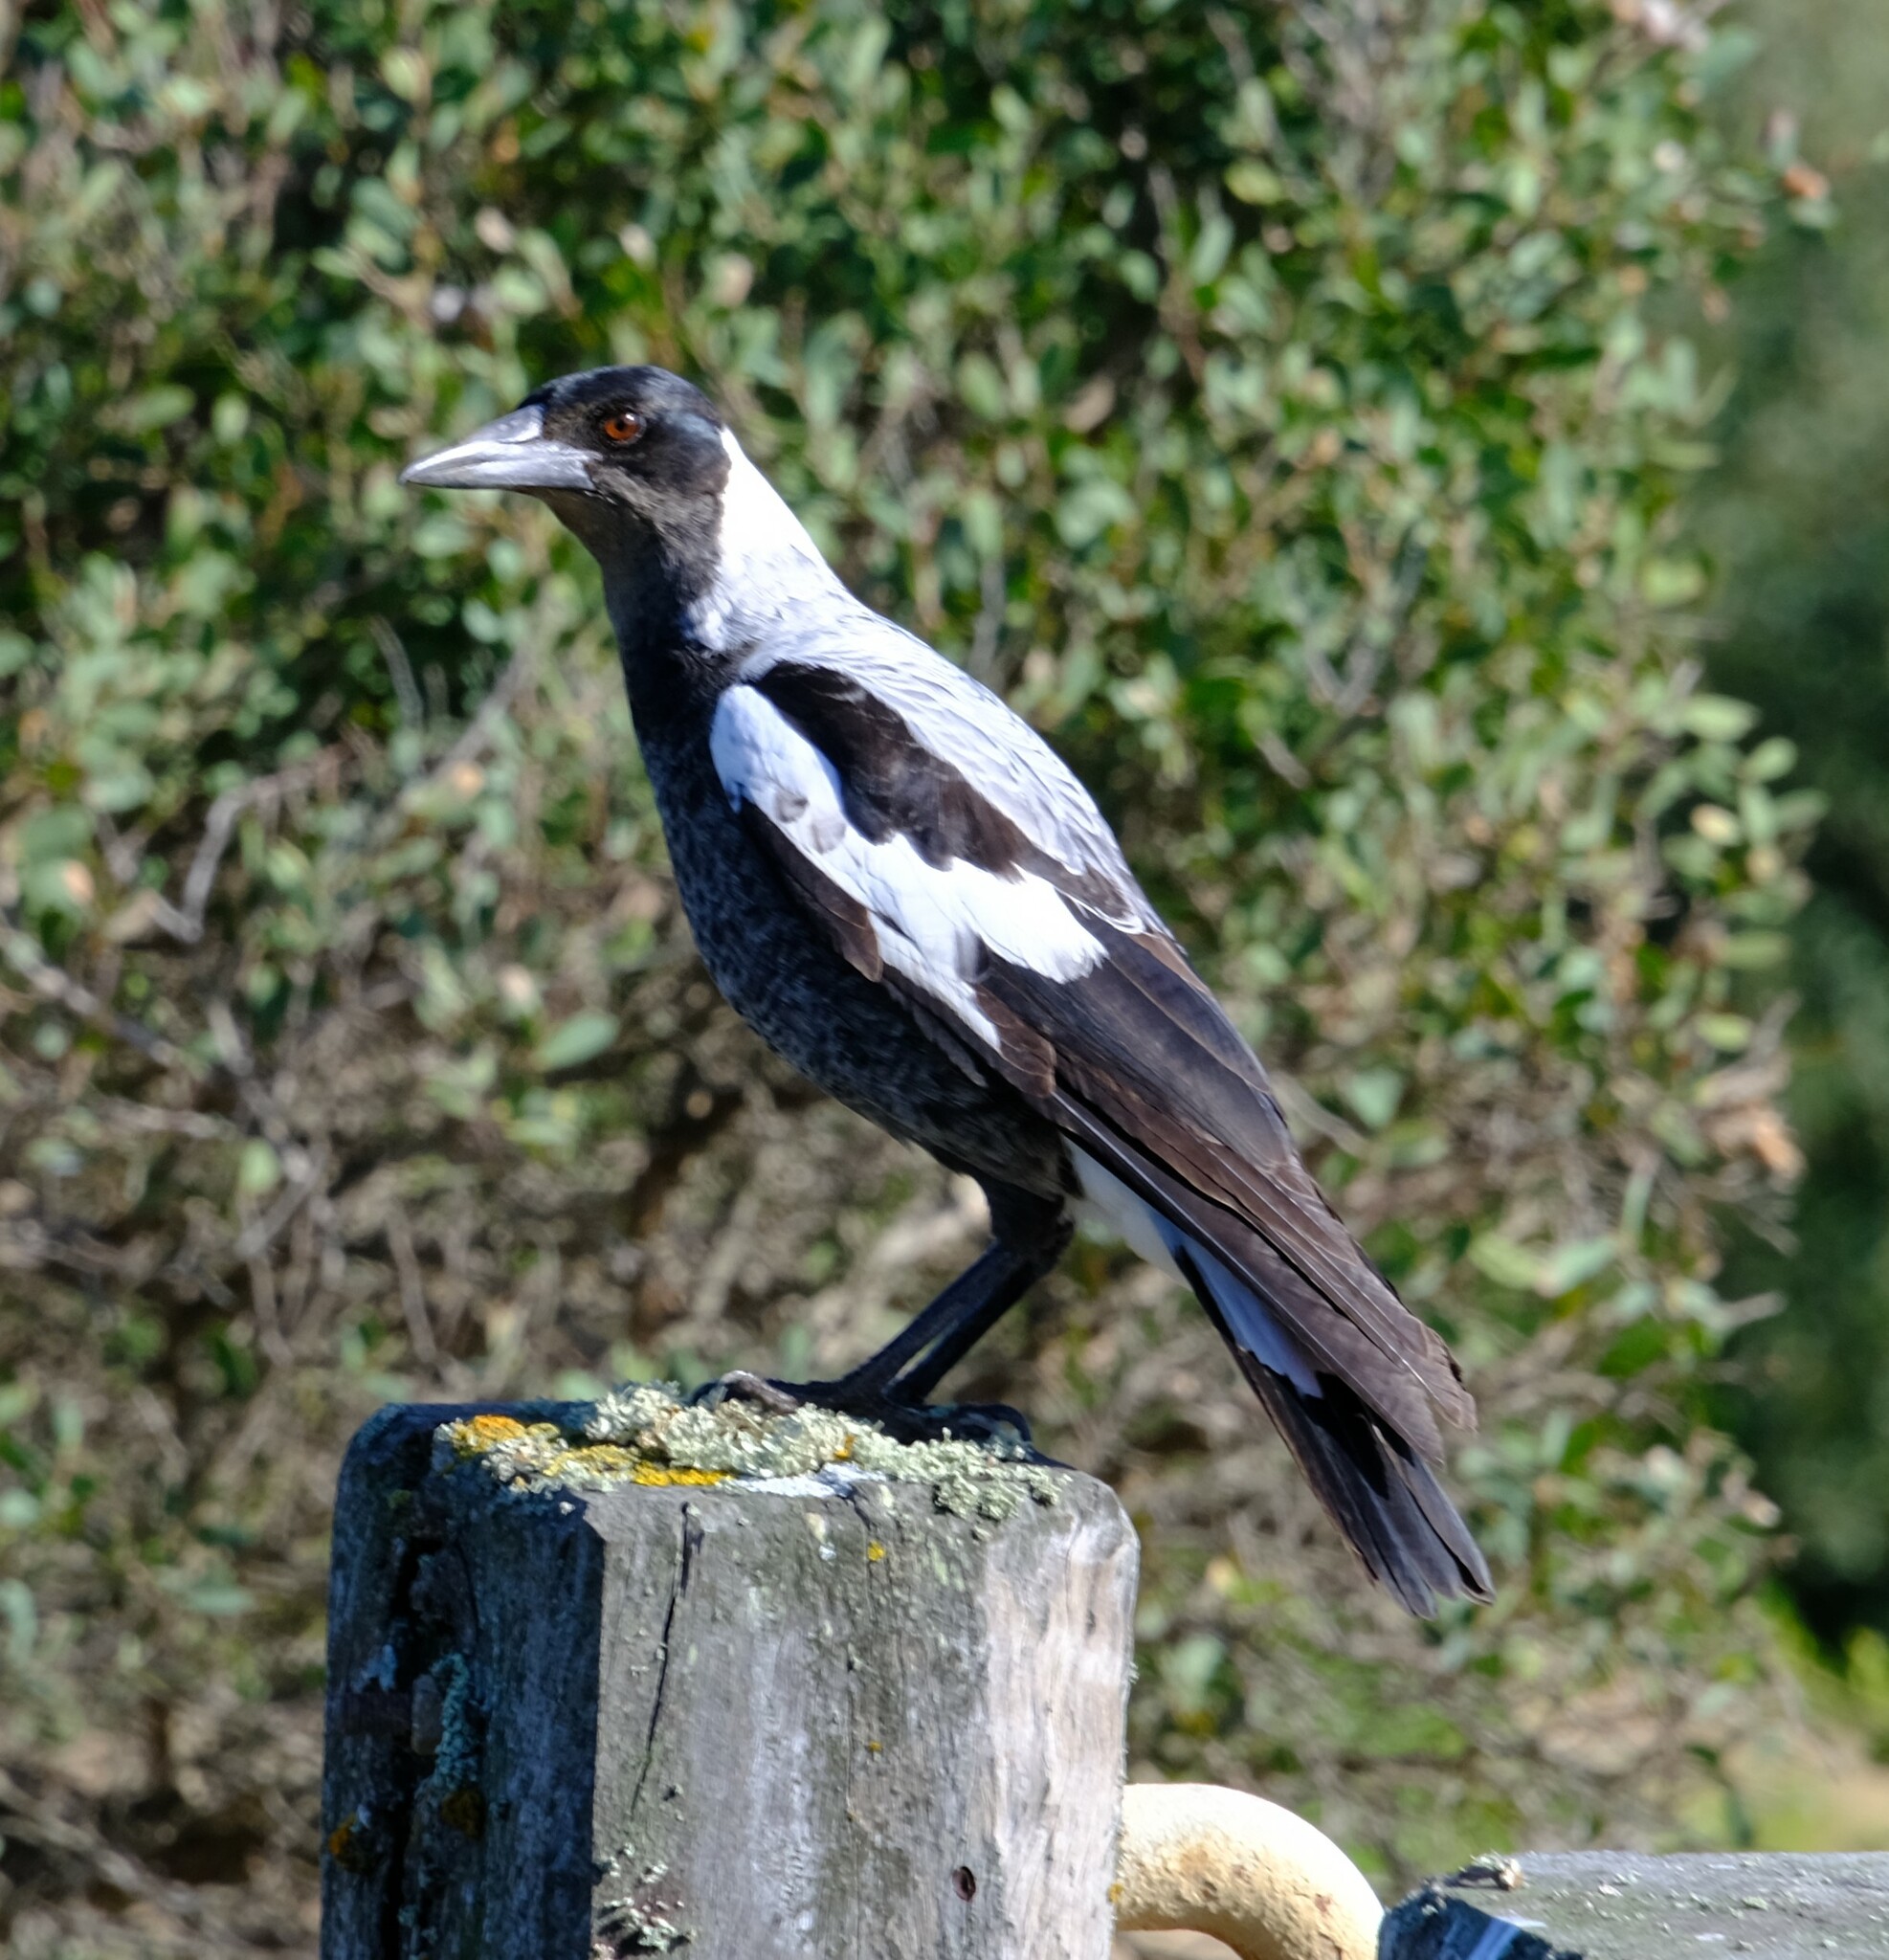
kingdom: Animalia
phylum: Chordata
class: Aves
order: Passeriformes
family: Cracticidae
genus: Gymnorhina
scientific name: Gymnorhina tibicen
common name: Australian magpie
